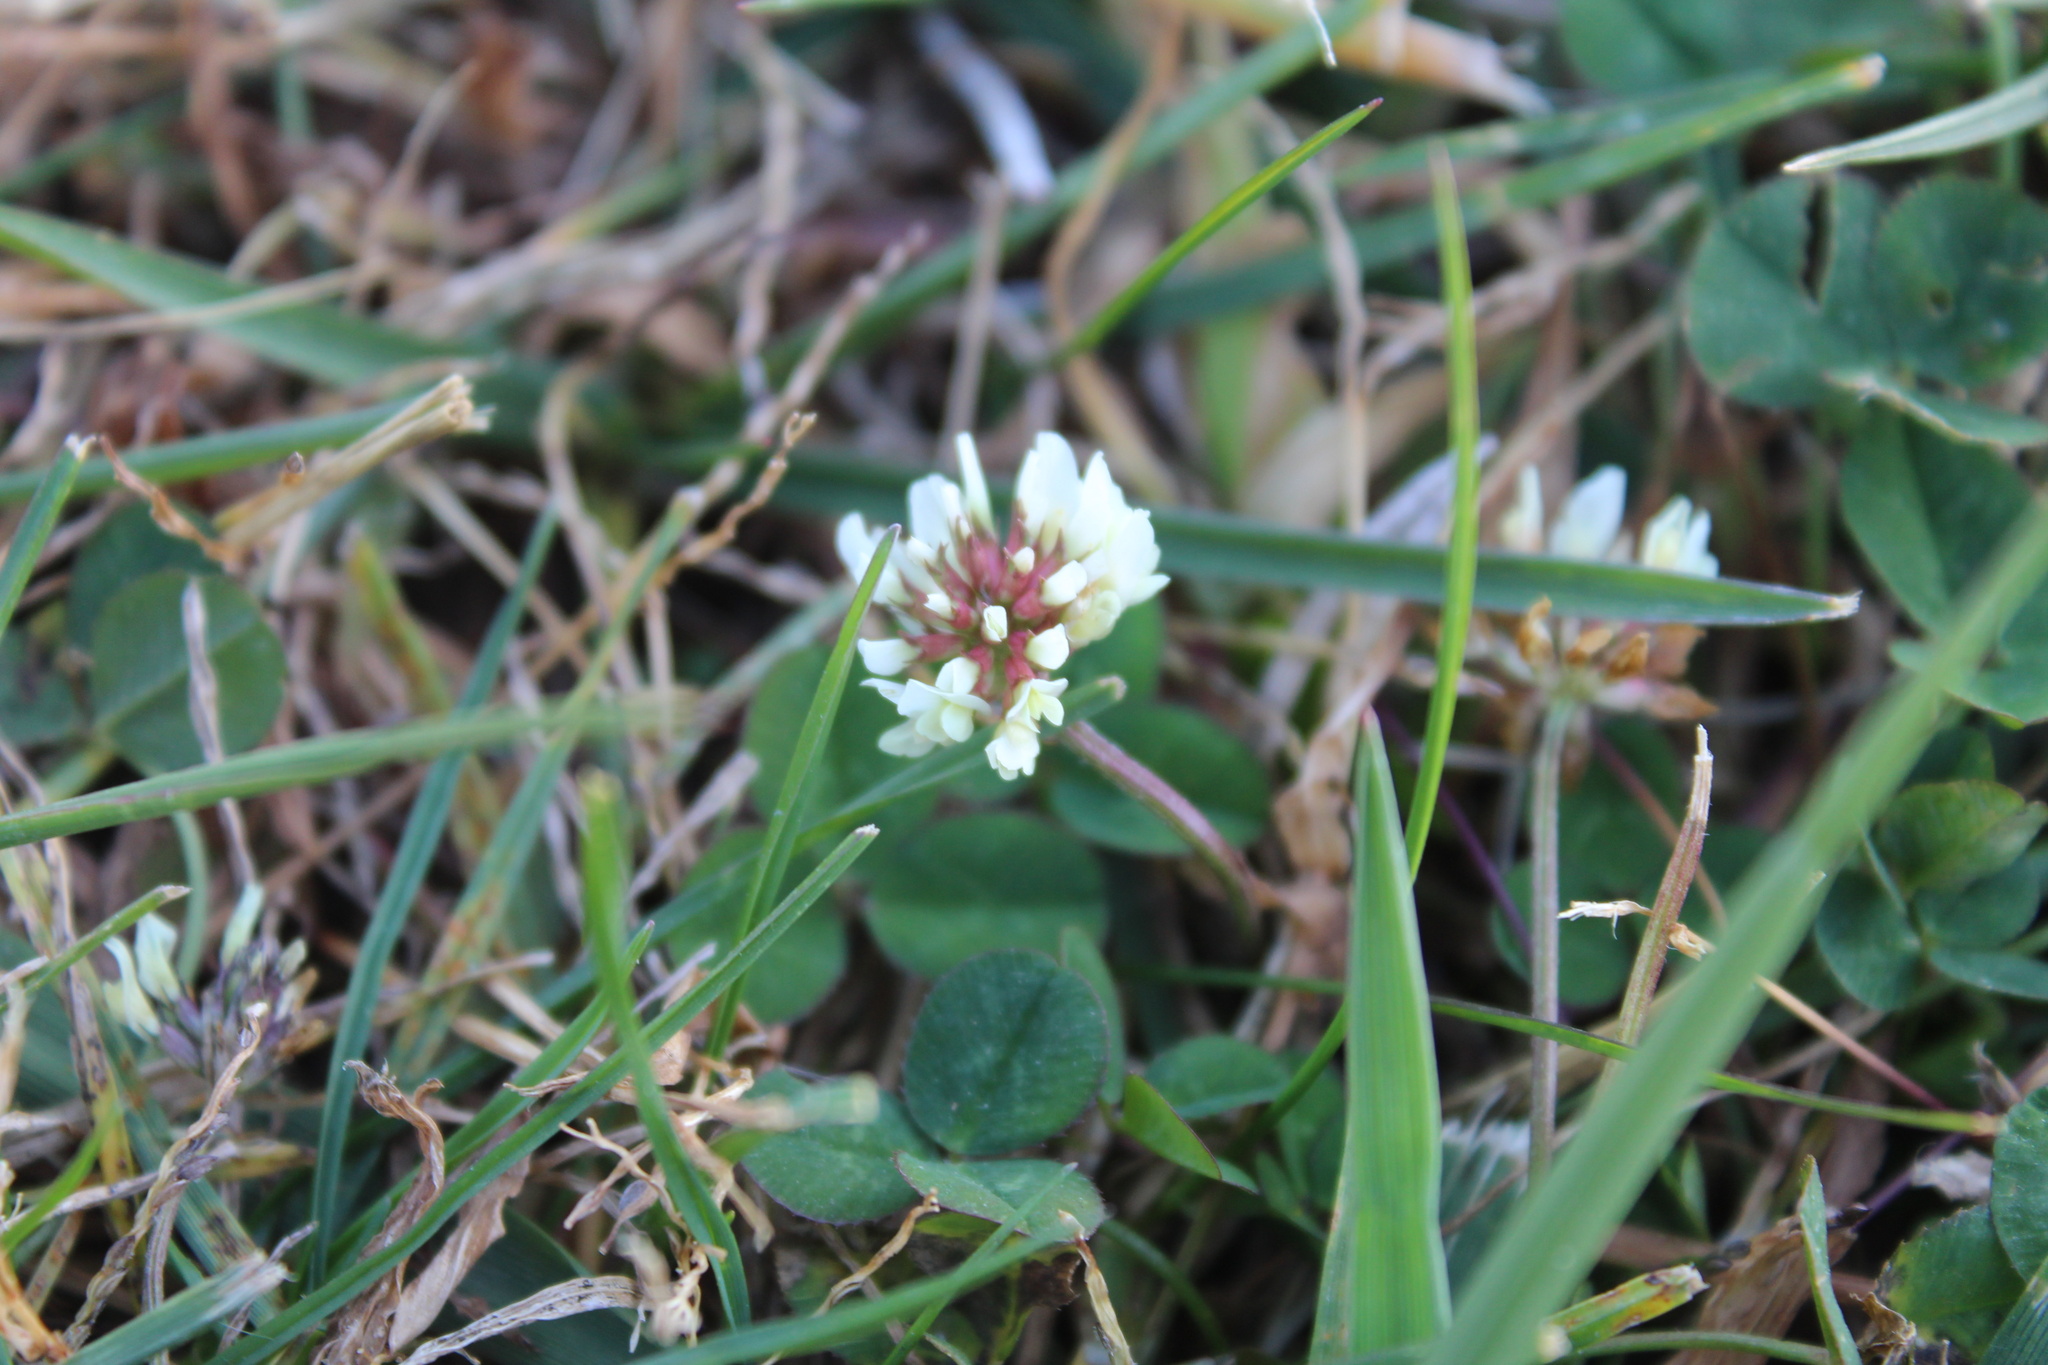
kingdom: Plantae
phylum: Tracheophyta
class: Magnoliopsida
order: Fabales
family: Fabaceae
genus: Trifolium
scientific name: Trifolium repens
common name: White clover
